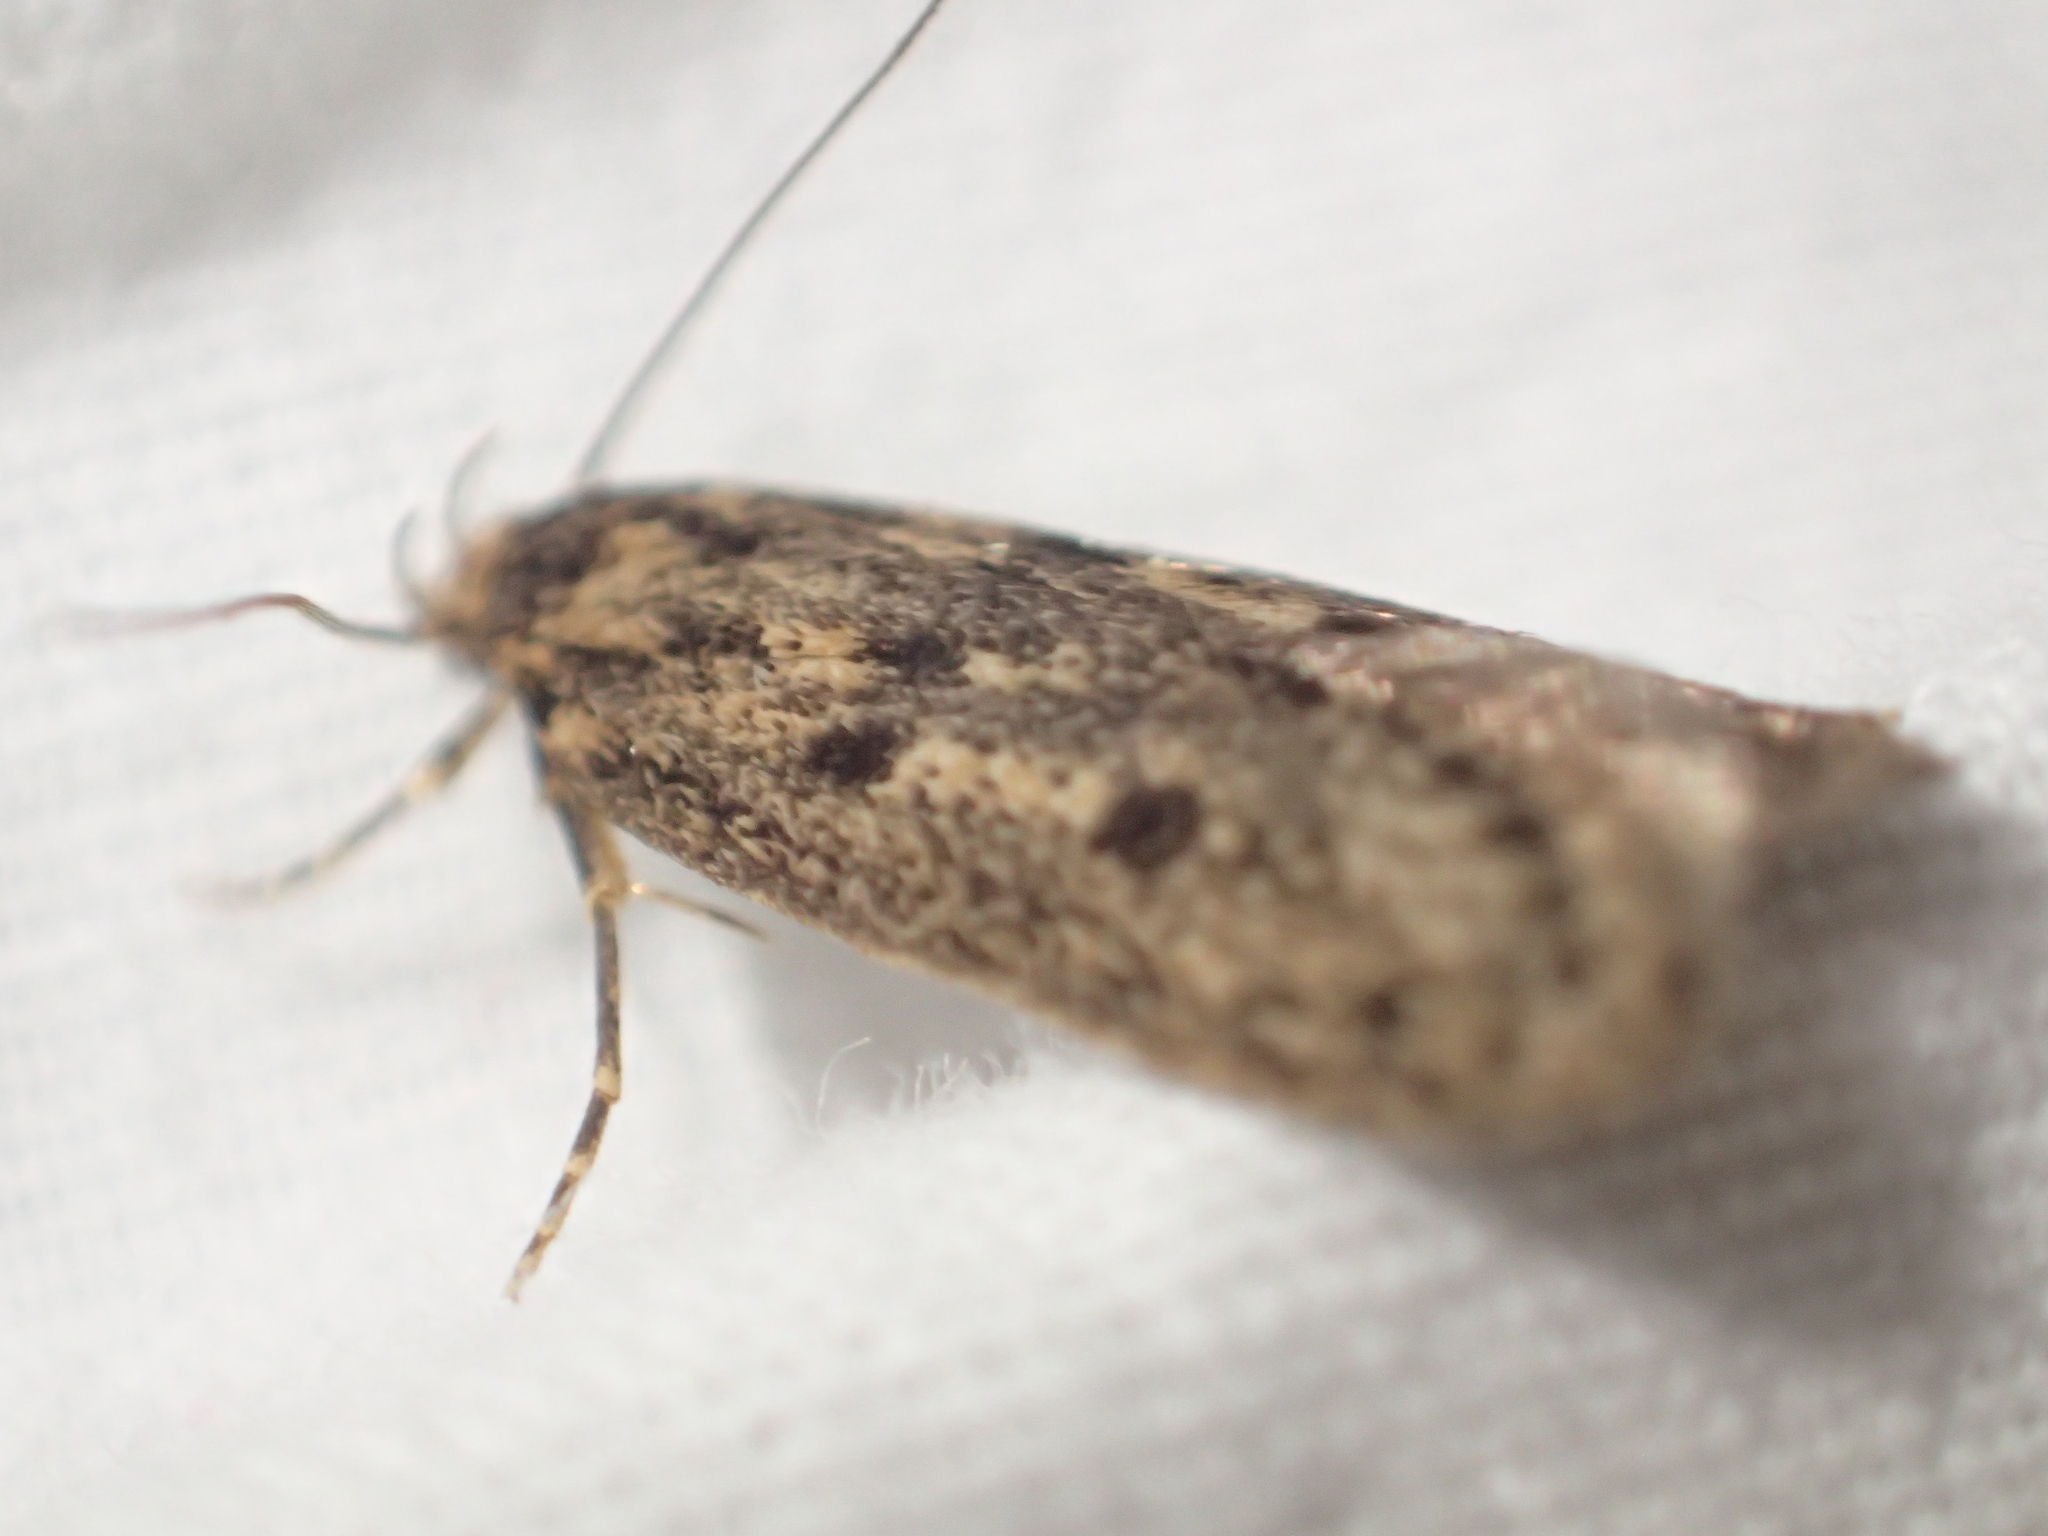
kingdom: Animalia
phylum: Arthropoda
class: Insecta
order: Lepidoptera
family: Oecophoridae
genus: Hofmannophila
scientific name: Hofmannophila pseudospretella
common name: Brown house moth
